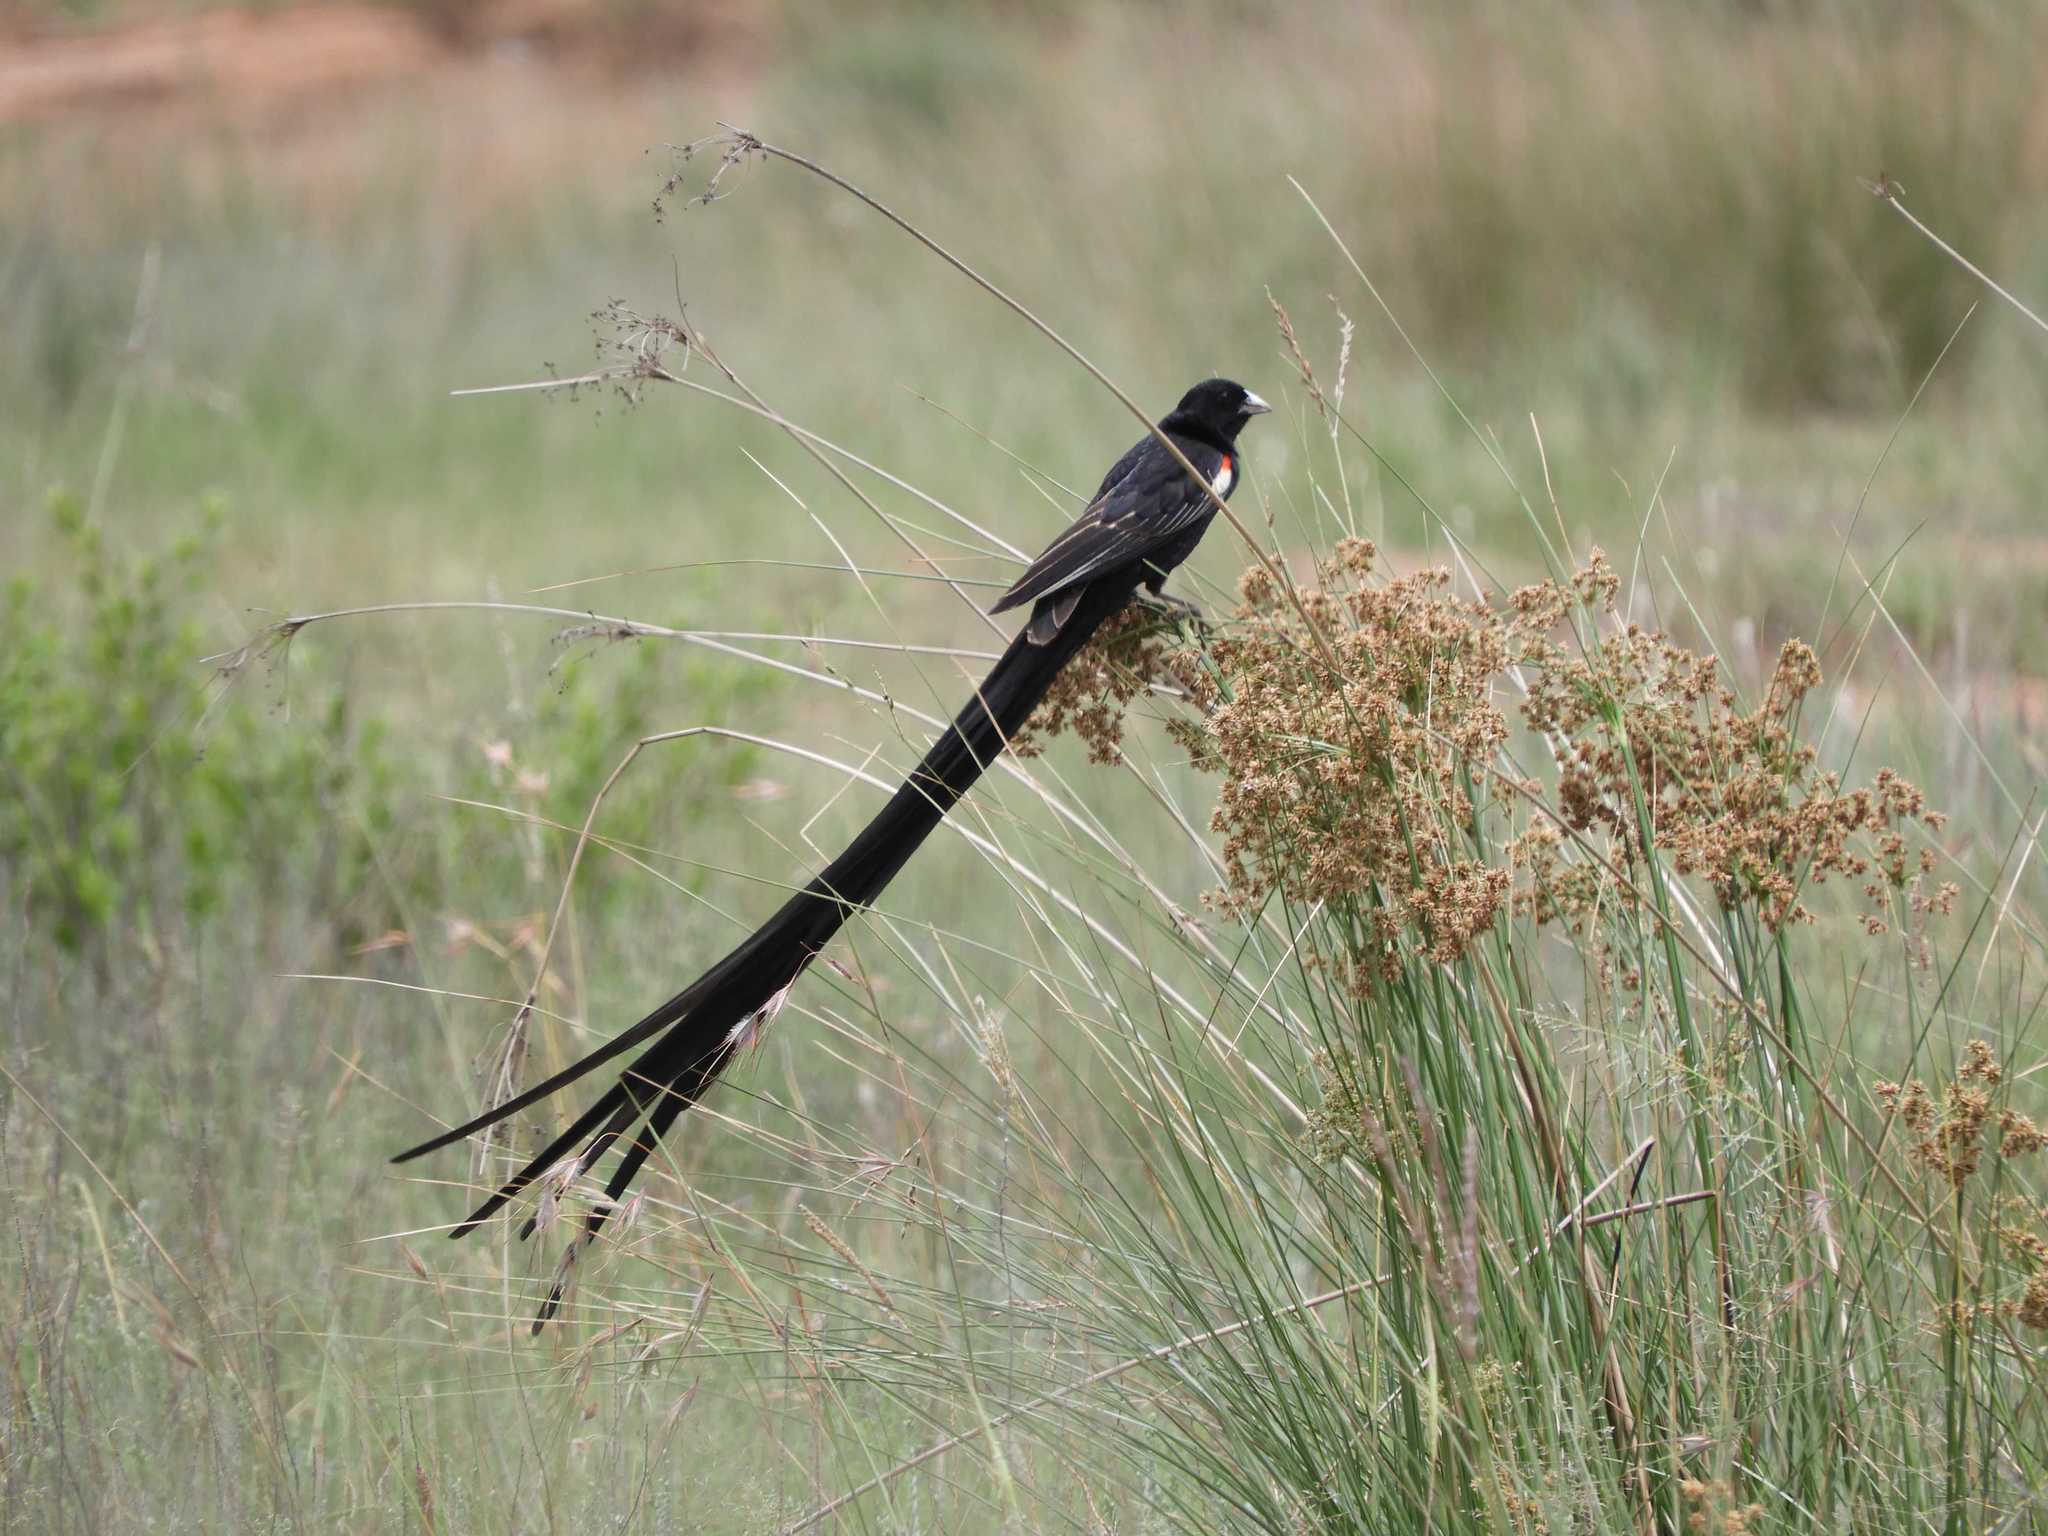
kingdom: Animalia
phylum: Chordata
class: Aves
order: Passeriformes
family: Ploceidae
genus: Euplectes
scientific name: Euplectes progne
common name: Long-tailed widowbird
